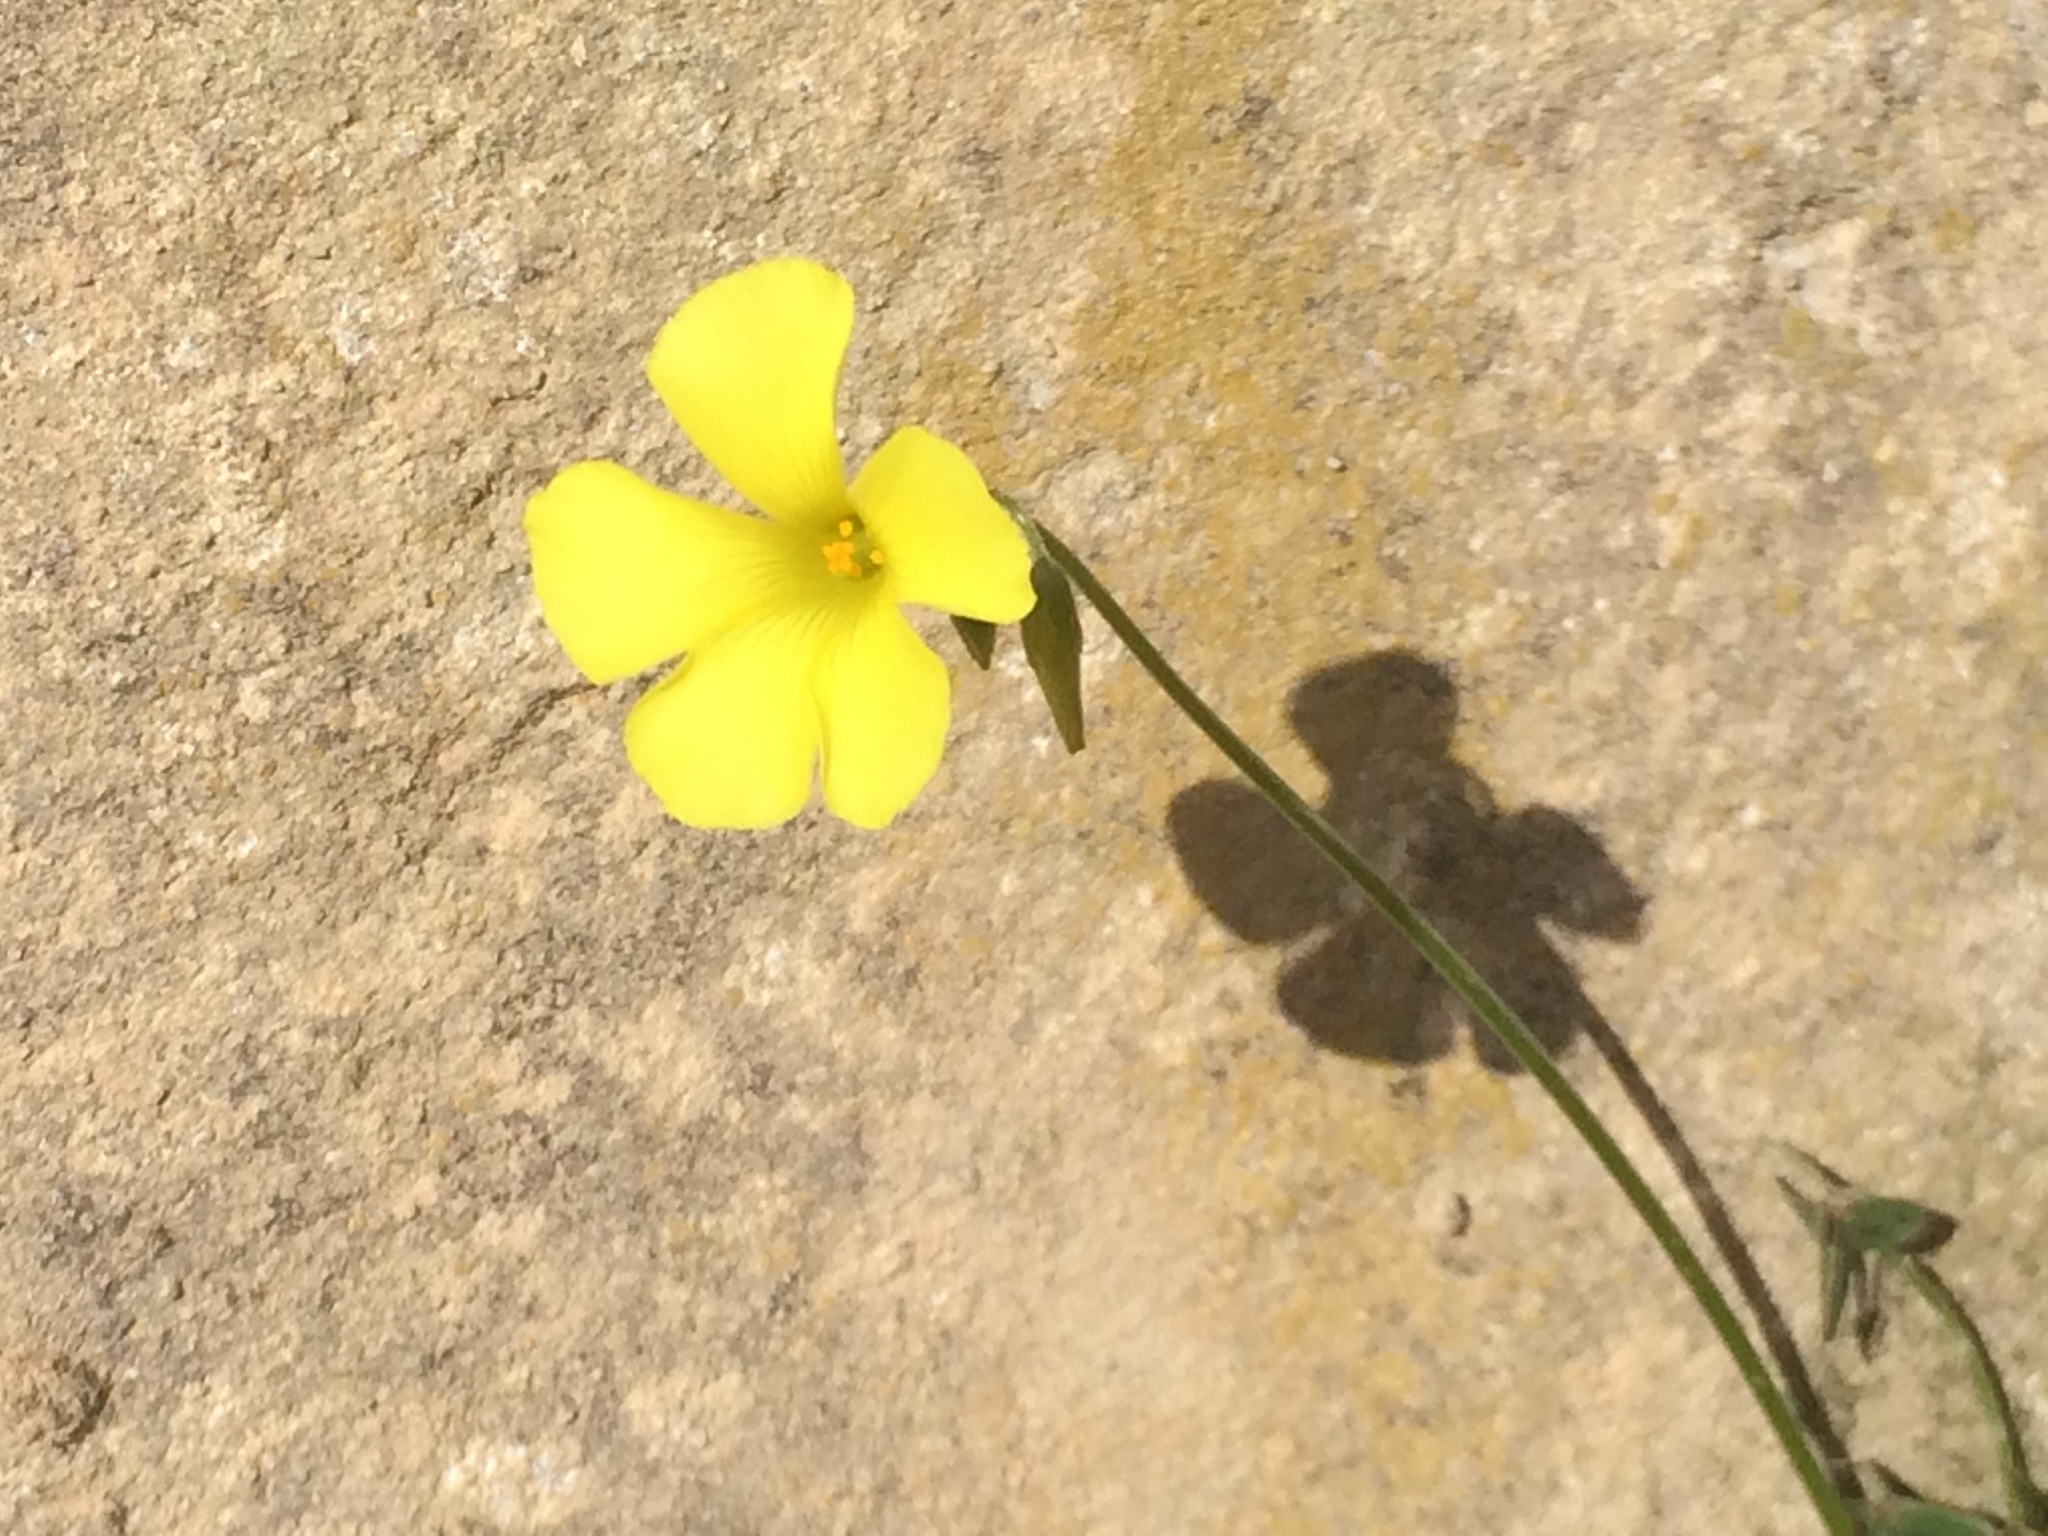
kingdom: Plantae
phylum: Tracheophyta
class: Magnoliopsida
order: Oxalidales
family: Oxalidaceae
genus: Oxalis
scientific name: Oxalis pes-caprae
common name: Bermuda-buttercup
